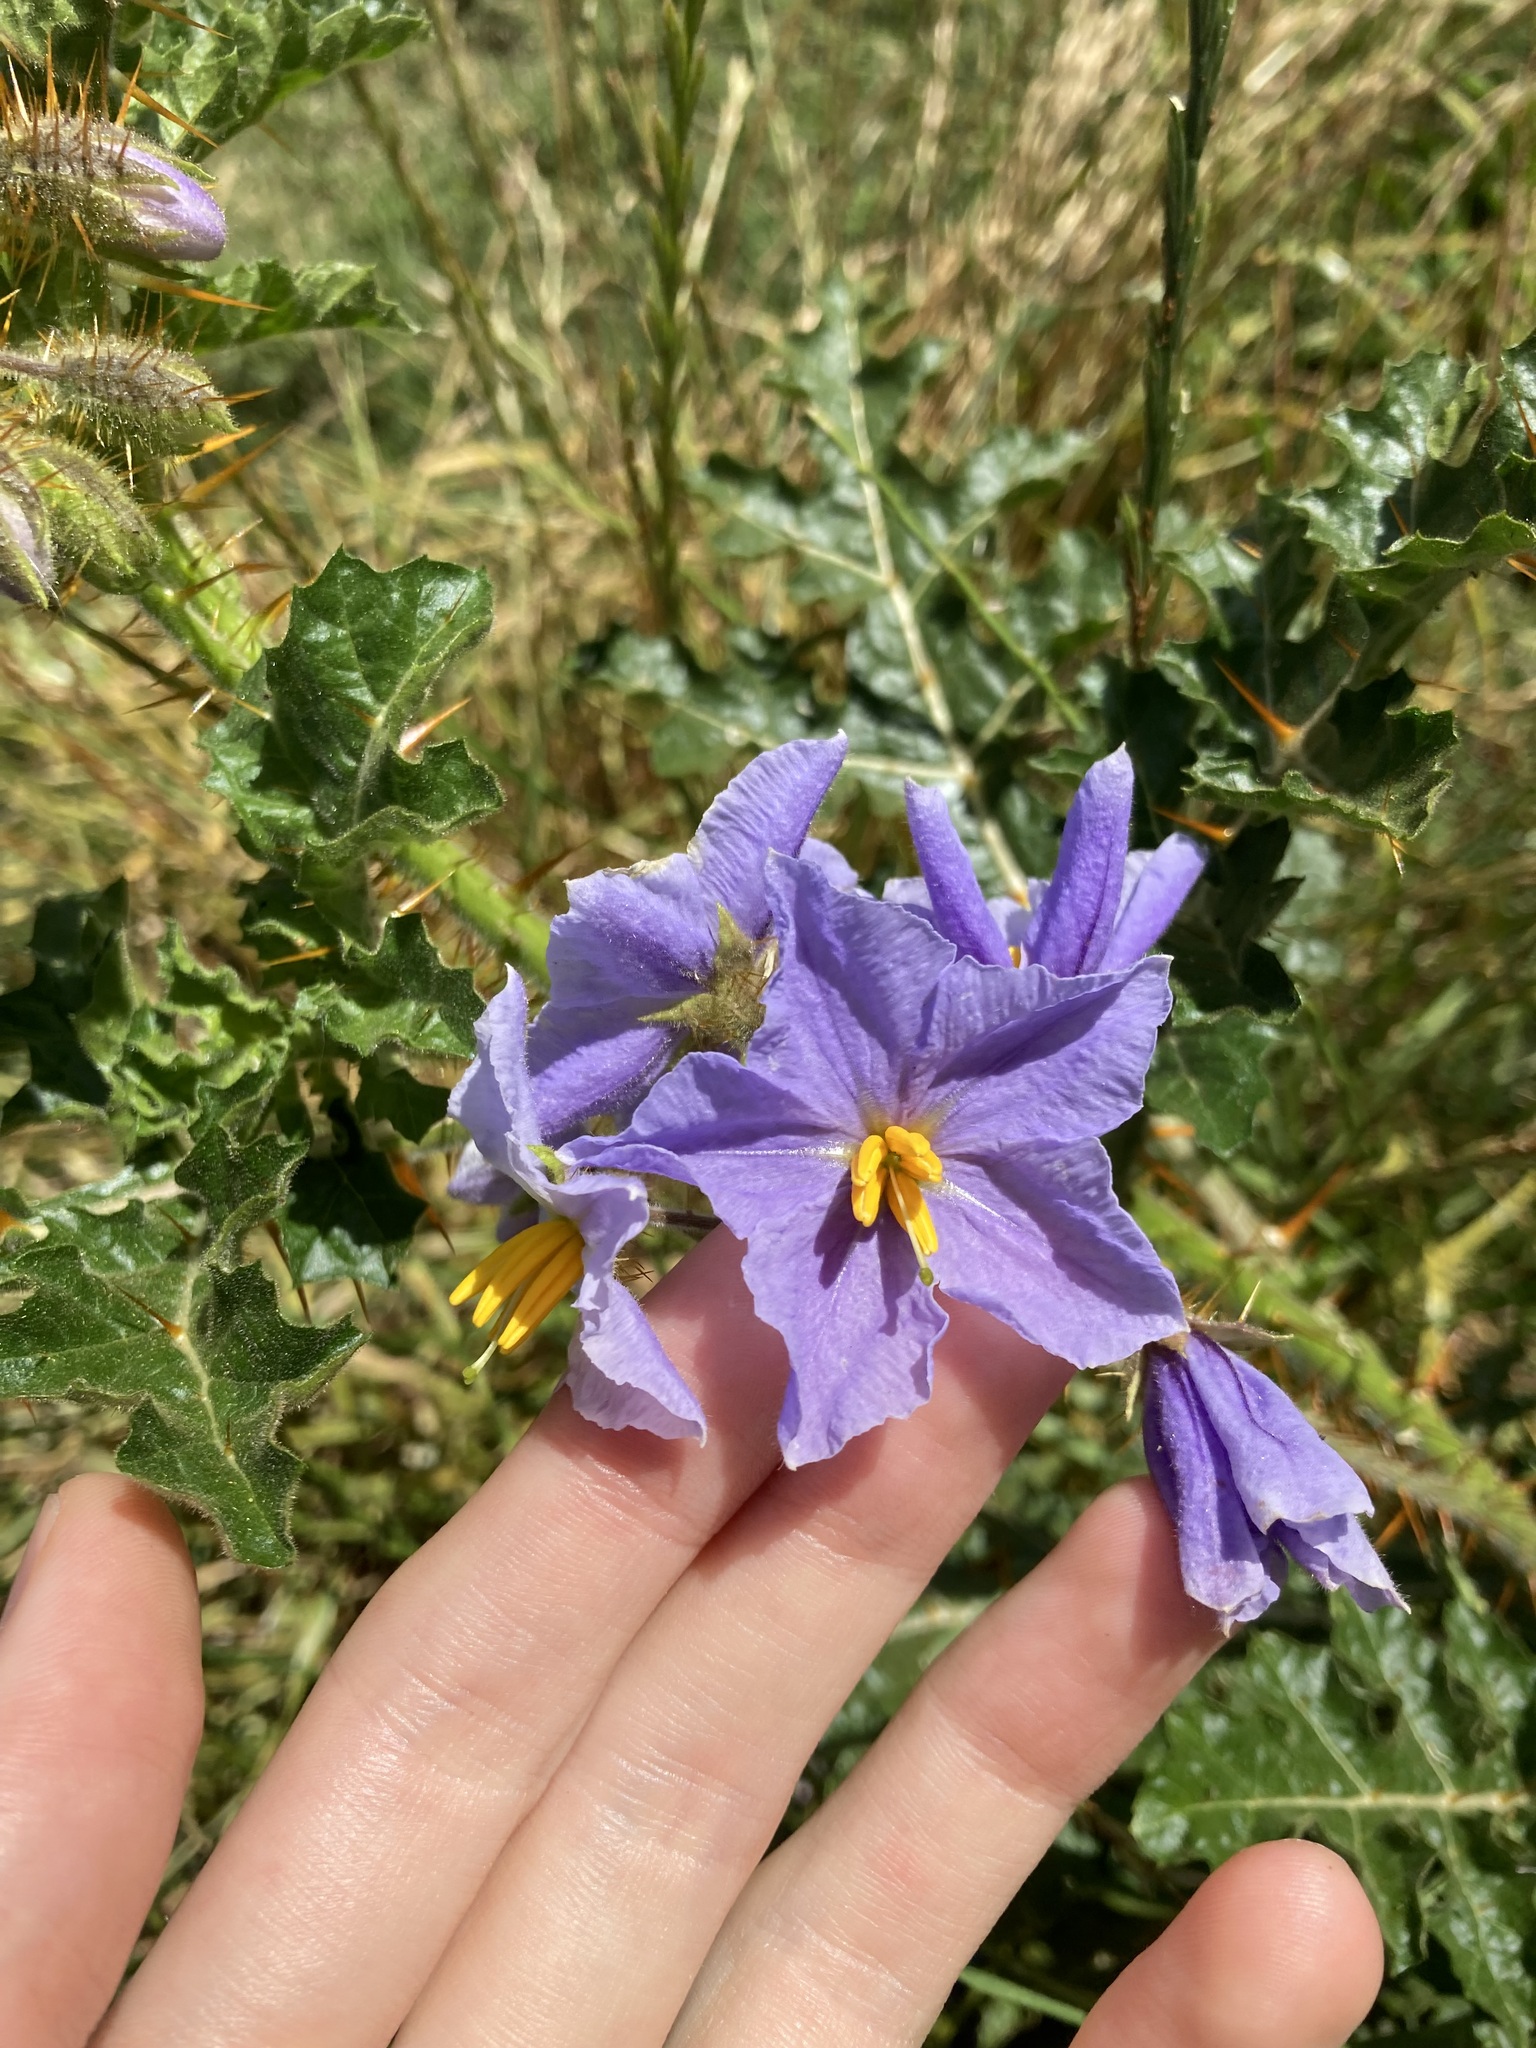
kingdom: Plantae
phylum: Tracheophyta
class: Magnoliopsida
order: Solanales
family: Solanaceae
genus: Solanum
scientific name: Solanum sisymbriifolium
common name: Red buffalo-bur
